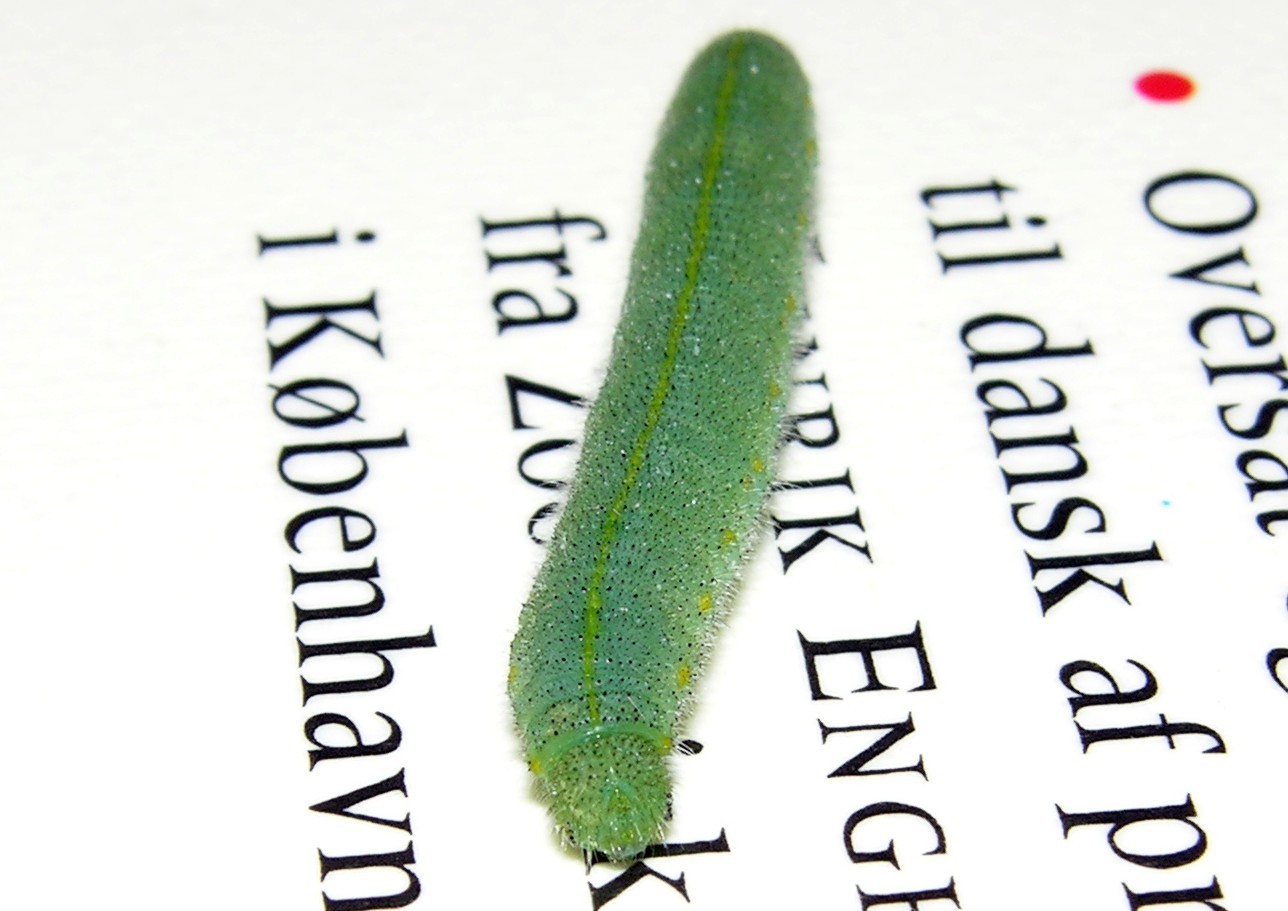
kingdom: Animalia
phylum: Arthropoda
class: Insecta
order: Lepidoptera
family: Pieridae
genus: Pieris
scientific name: Pieris rapae
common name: Small white
